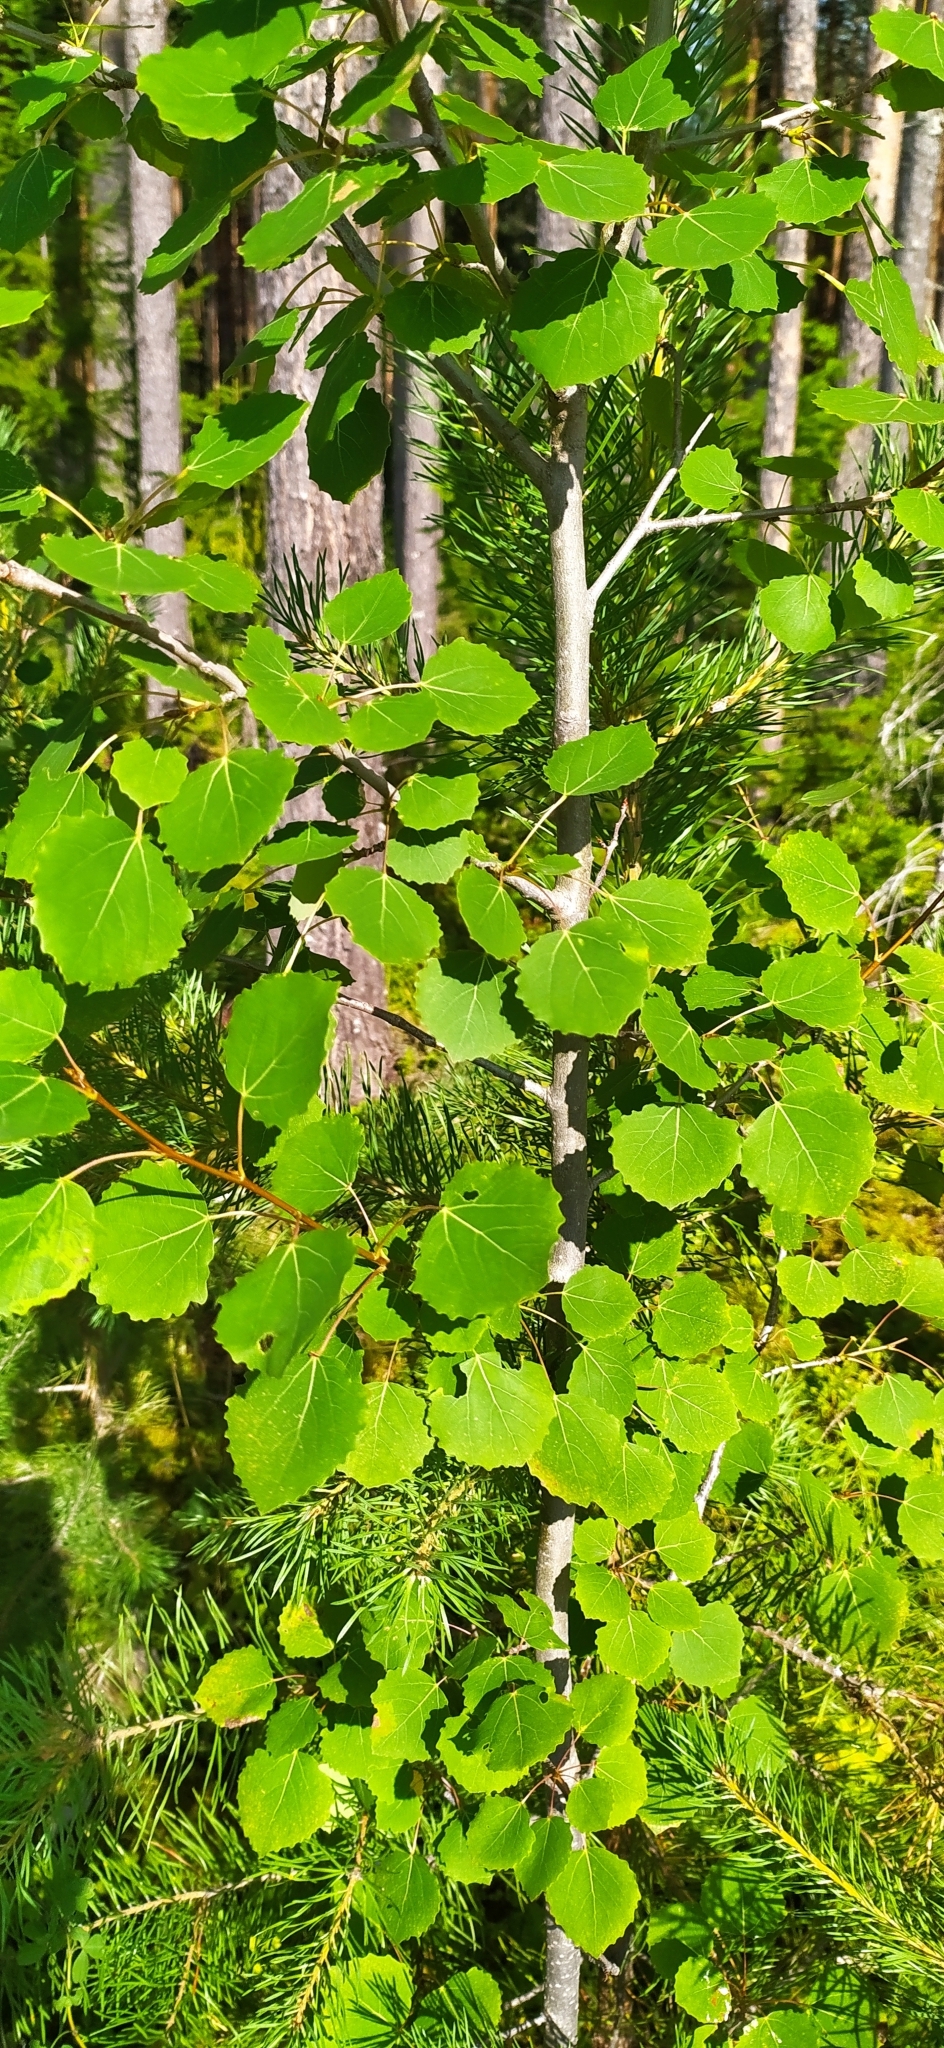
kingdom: Plantae
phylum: Tracheophyta
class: Magnoliopsida
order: Malpighiales
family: Salicaceae
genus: Populus
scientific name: Populus tremula
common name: European aspen
